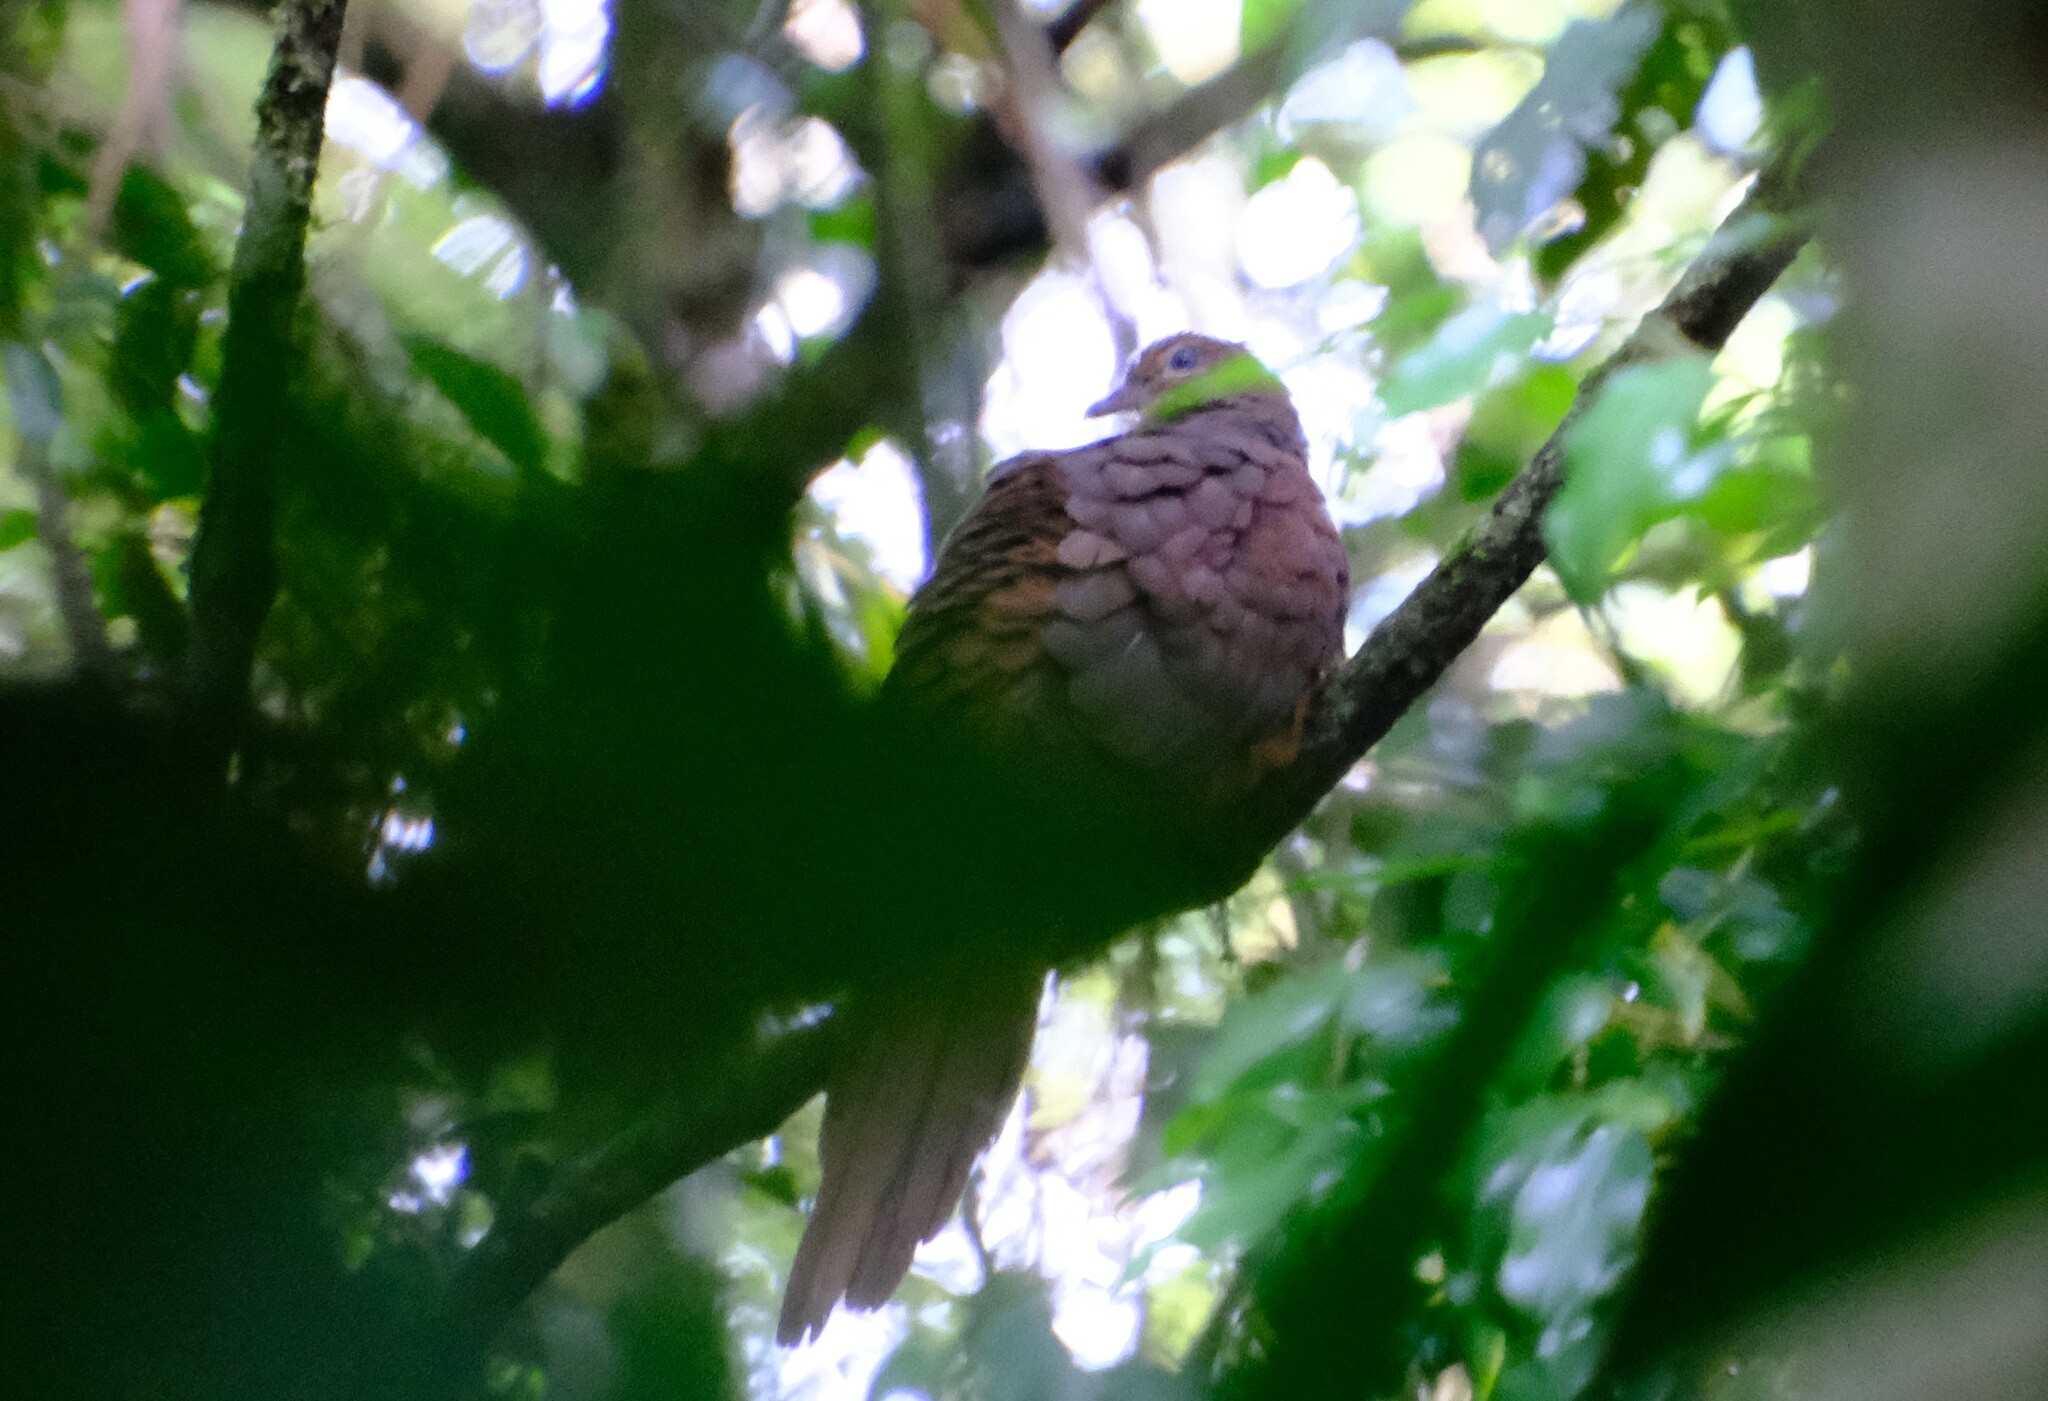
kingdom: Animalia
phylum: Chordata
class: Aves
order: Columbiformes
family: Columbidae
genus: Macropygia
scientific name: Macropygia phasianella
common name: Brown cuckoo-dove
